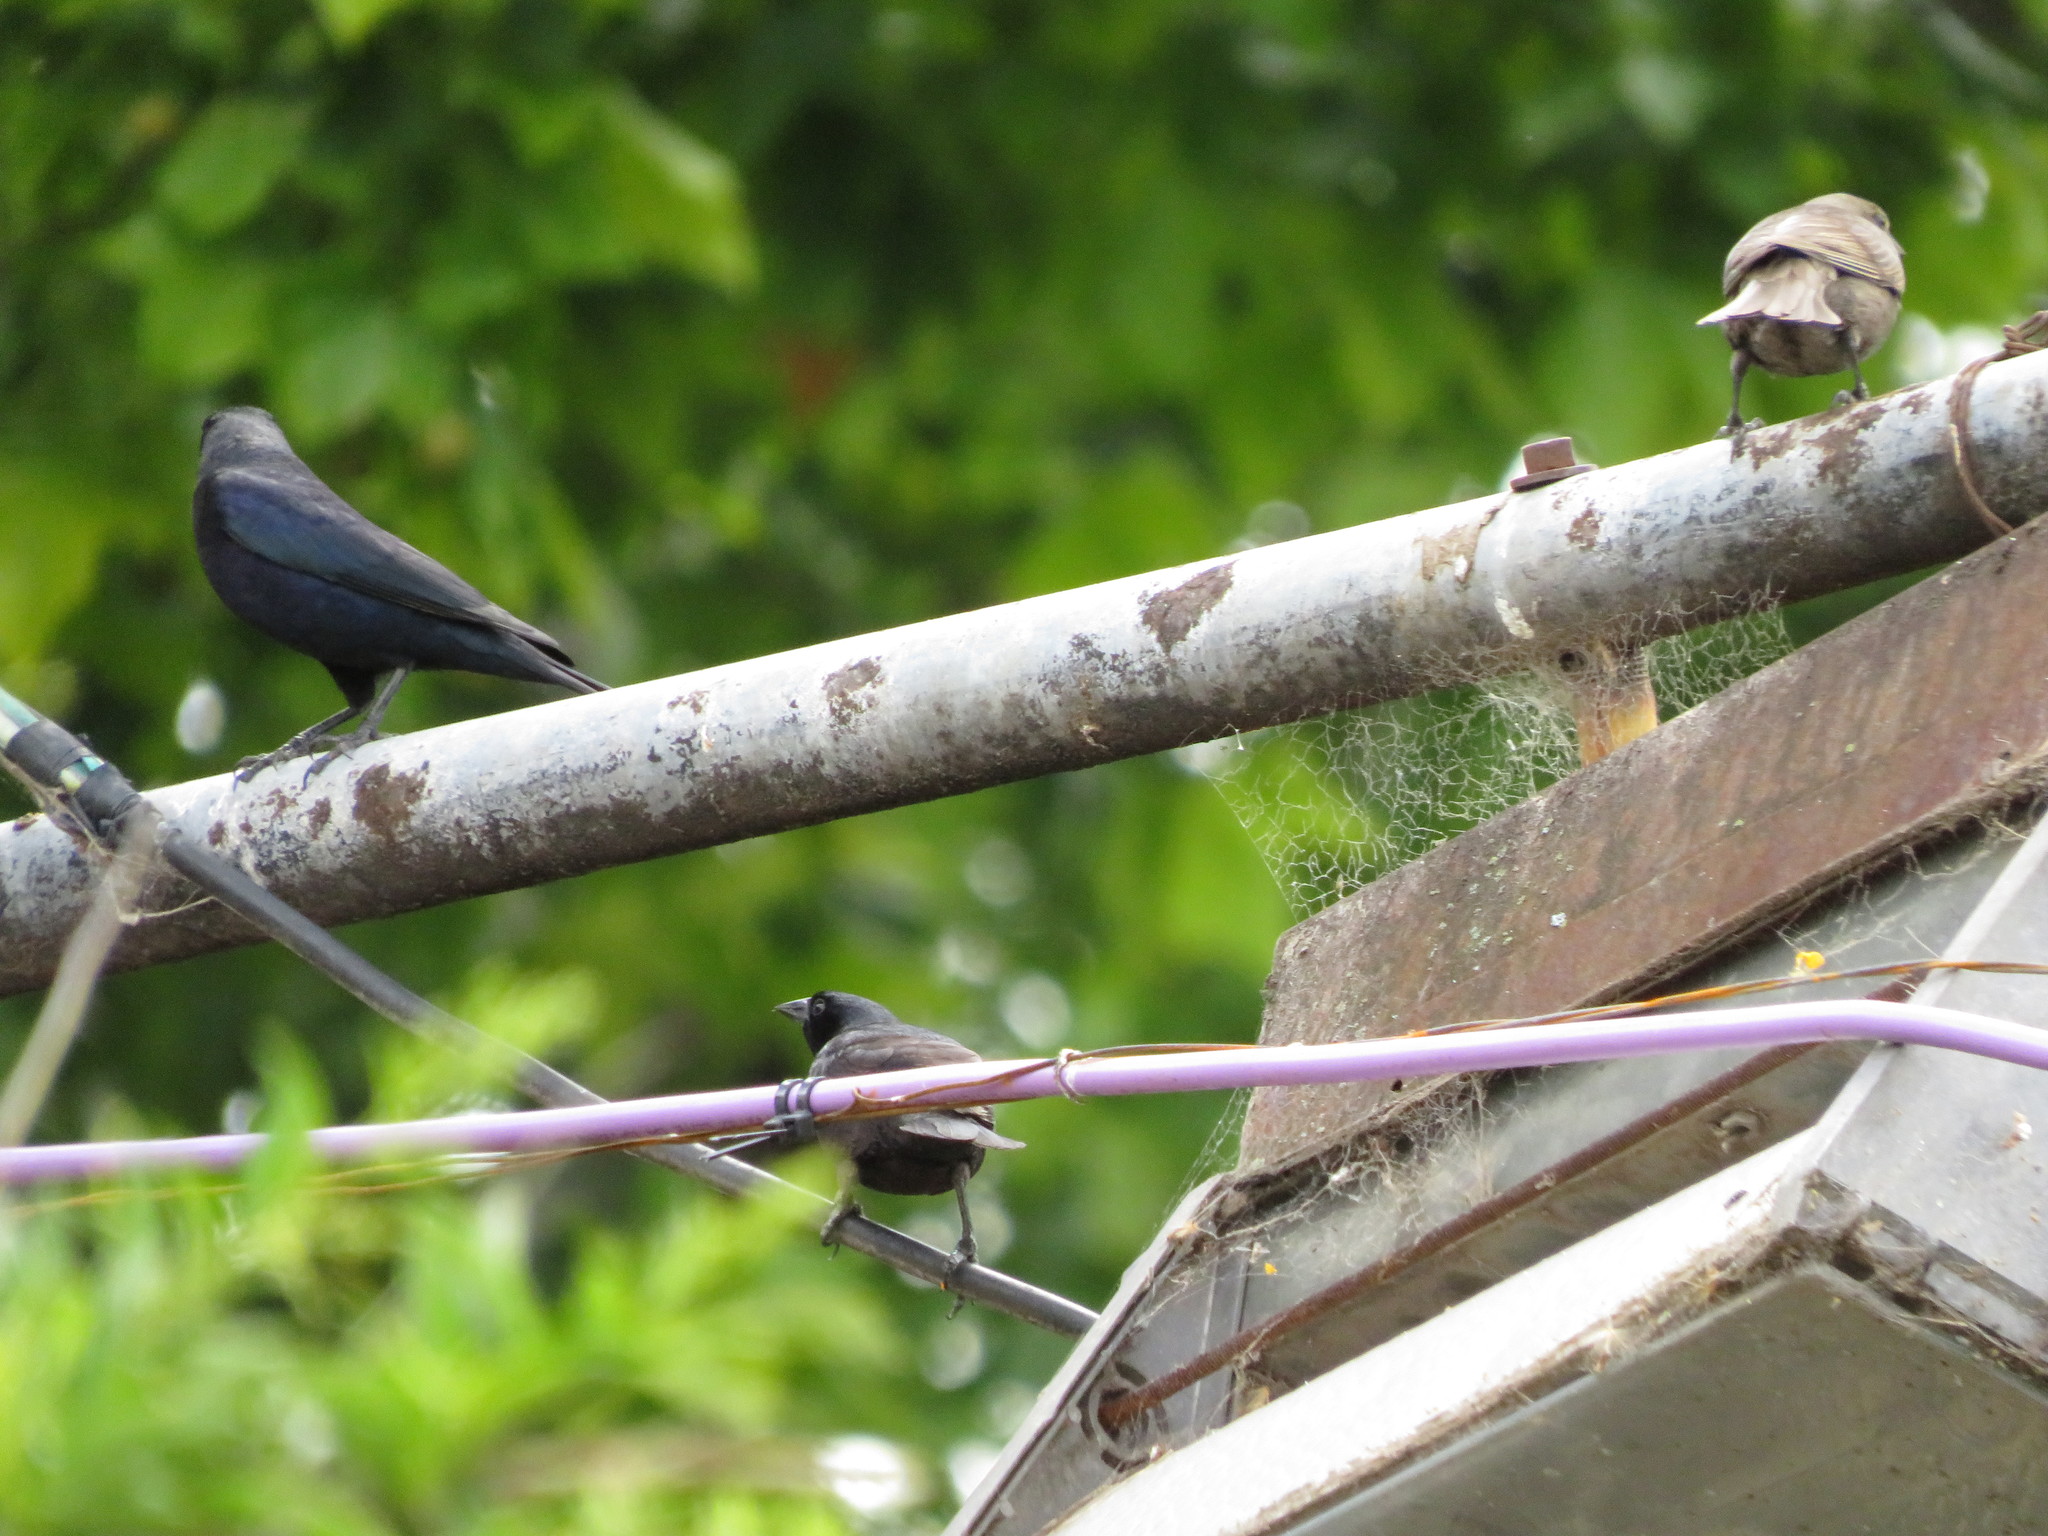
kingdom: Animalia
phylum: Chordata
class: Aves
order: Passeriformes
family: Icteridae
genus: Molothrus
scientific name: Molothrus bonariensis
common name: Shiny cowbird
